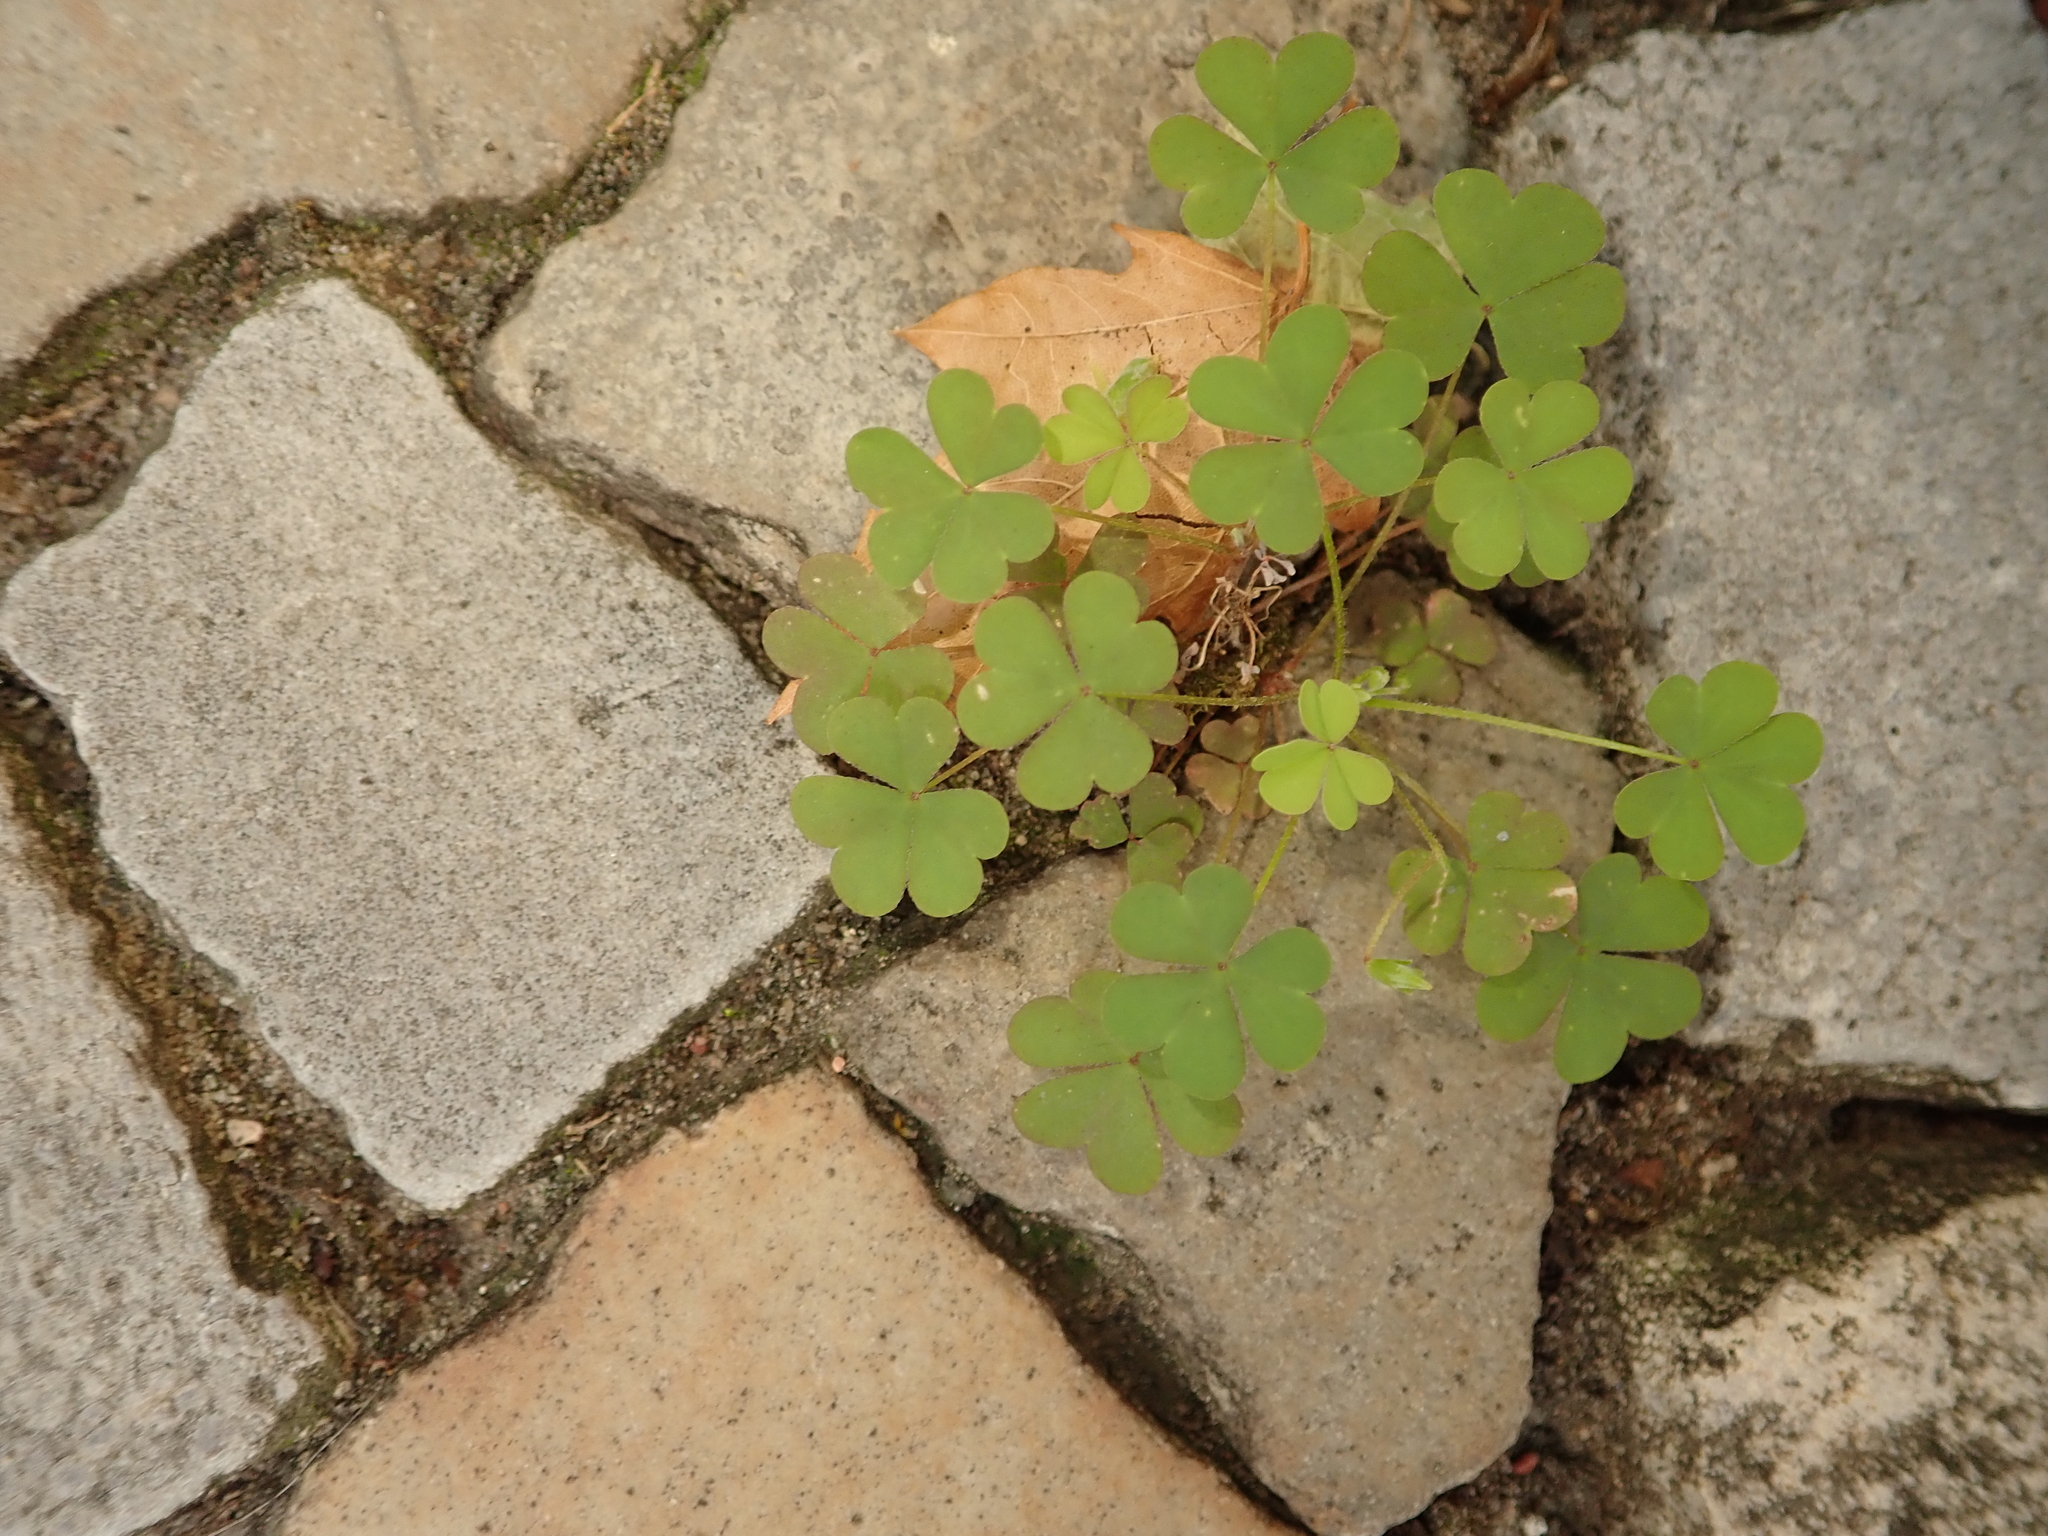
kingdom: Plantae
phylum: Tracheophyta
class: Magnoliopsida
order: Oxalidales
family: Oxalidaceae
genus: Oxalis
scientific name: Oxalis corniculata
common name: Procumbent yellow-sorrel
